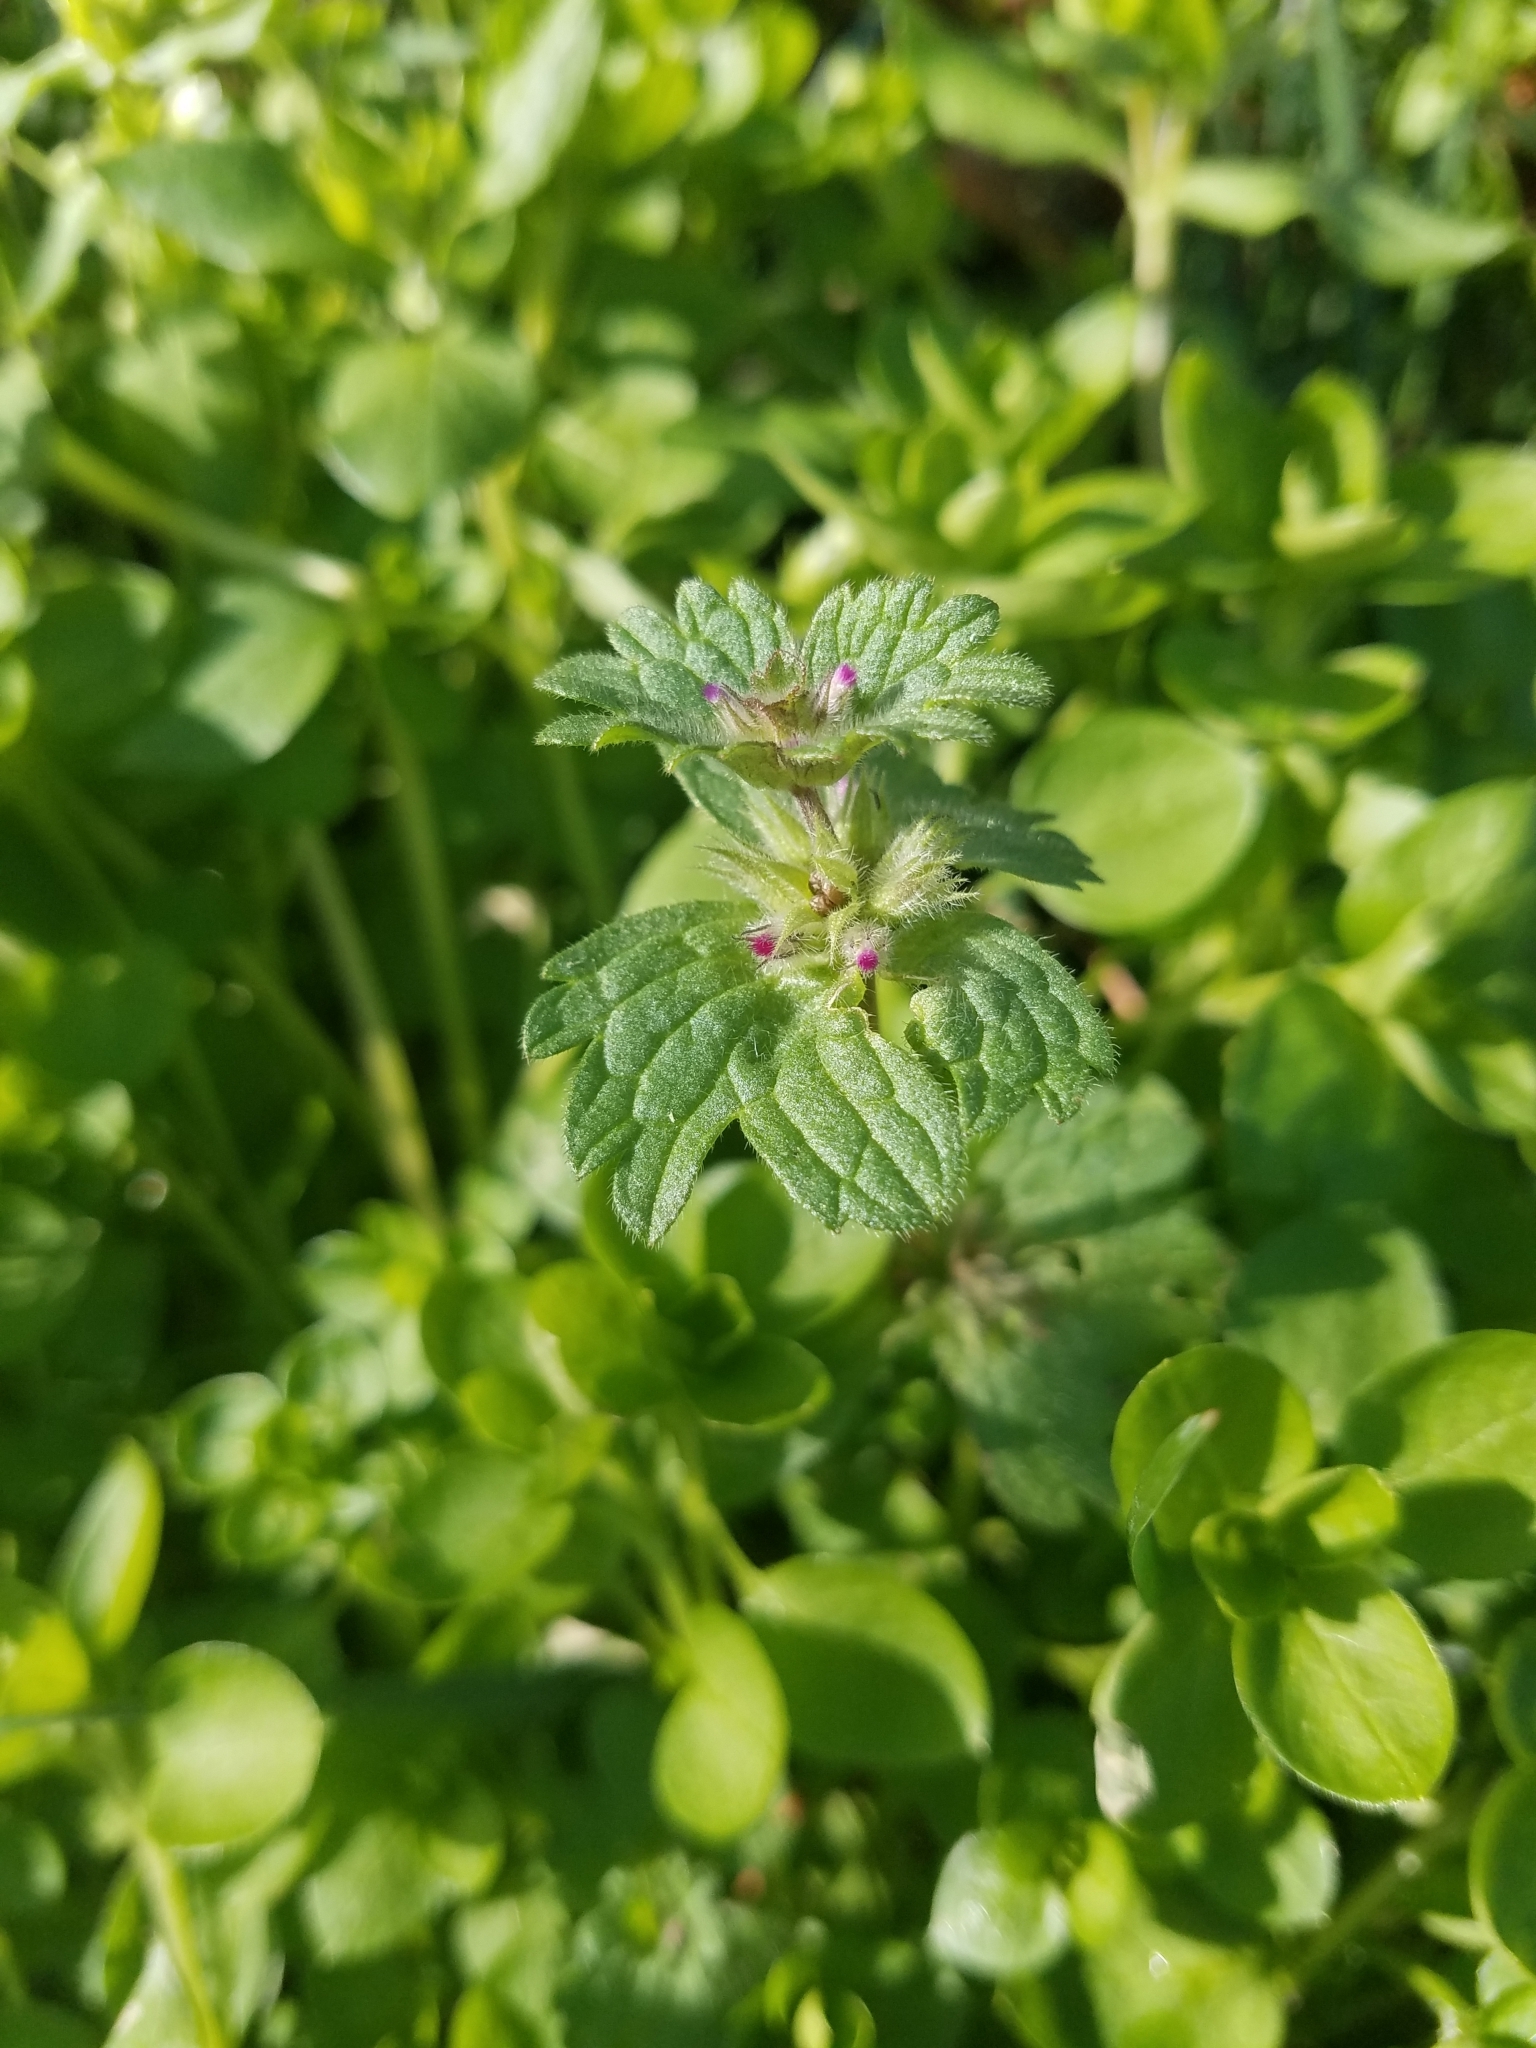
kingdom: Plantae
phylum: Tracheophyta
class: Magnoliopsida
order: Lamiales
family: Lamiaceae
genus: Lamium
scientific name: Lamium amplexicaule
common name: Henbit dead-nettle
